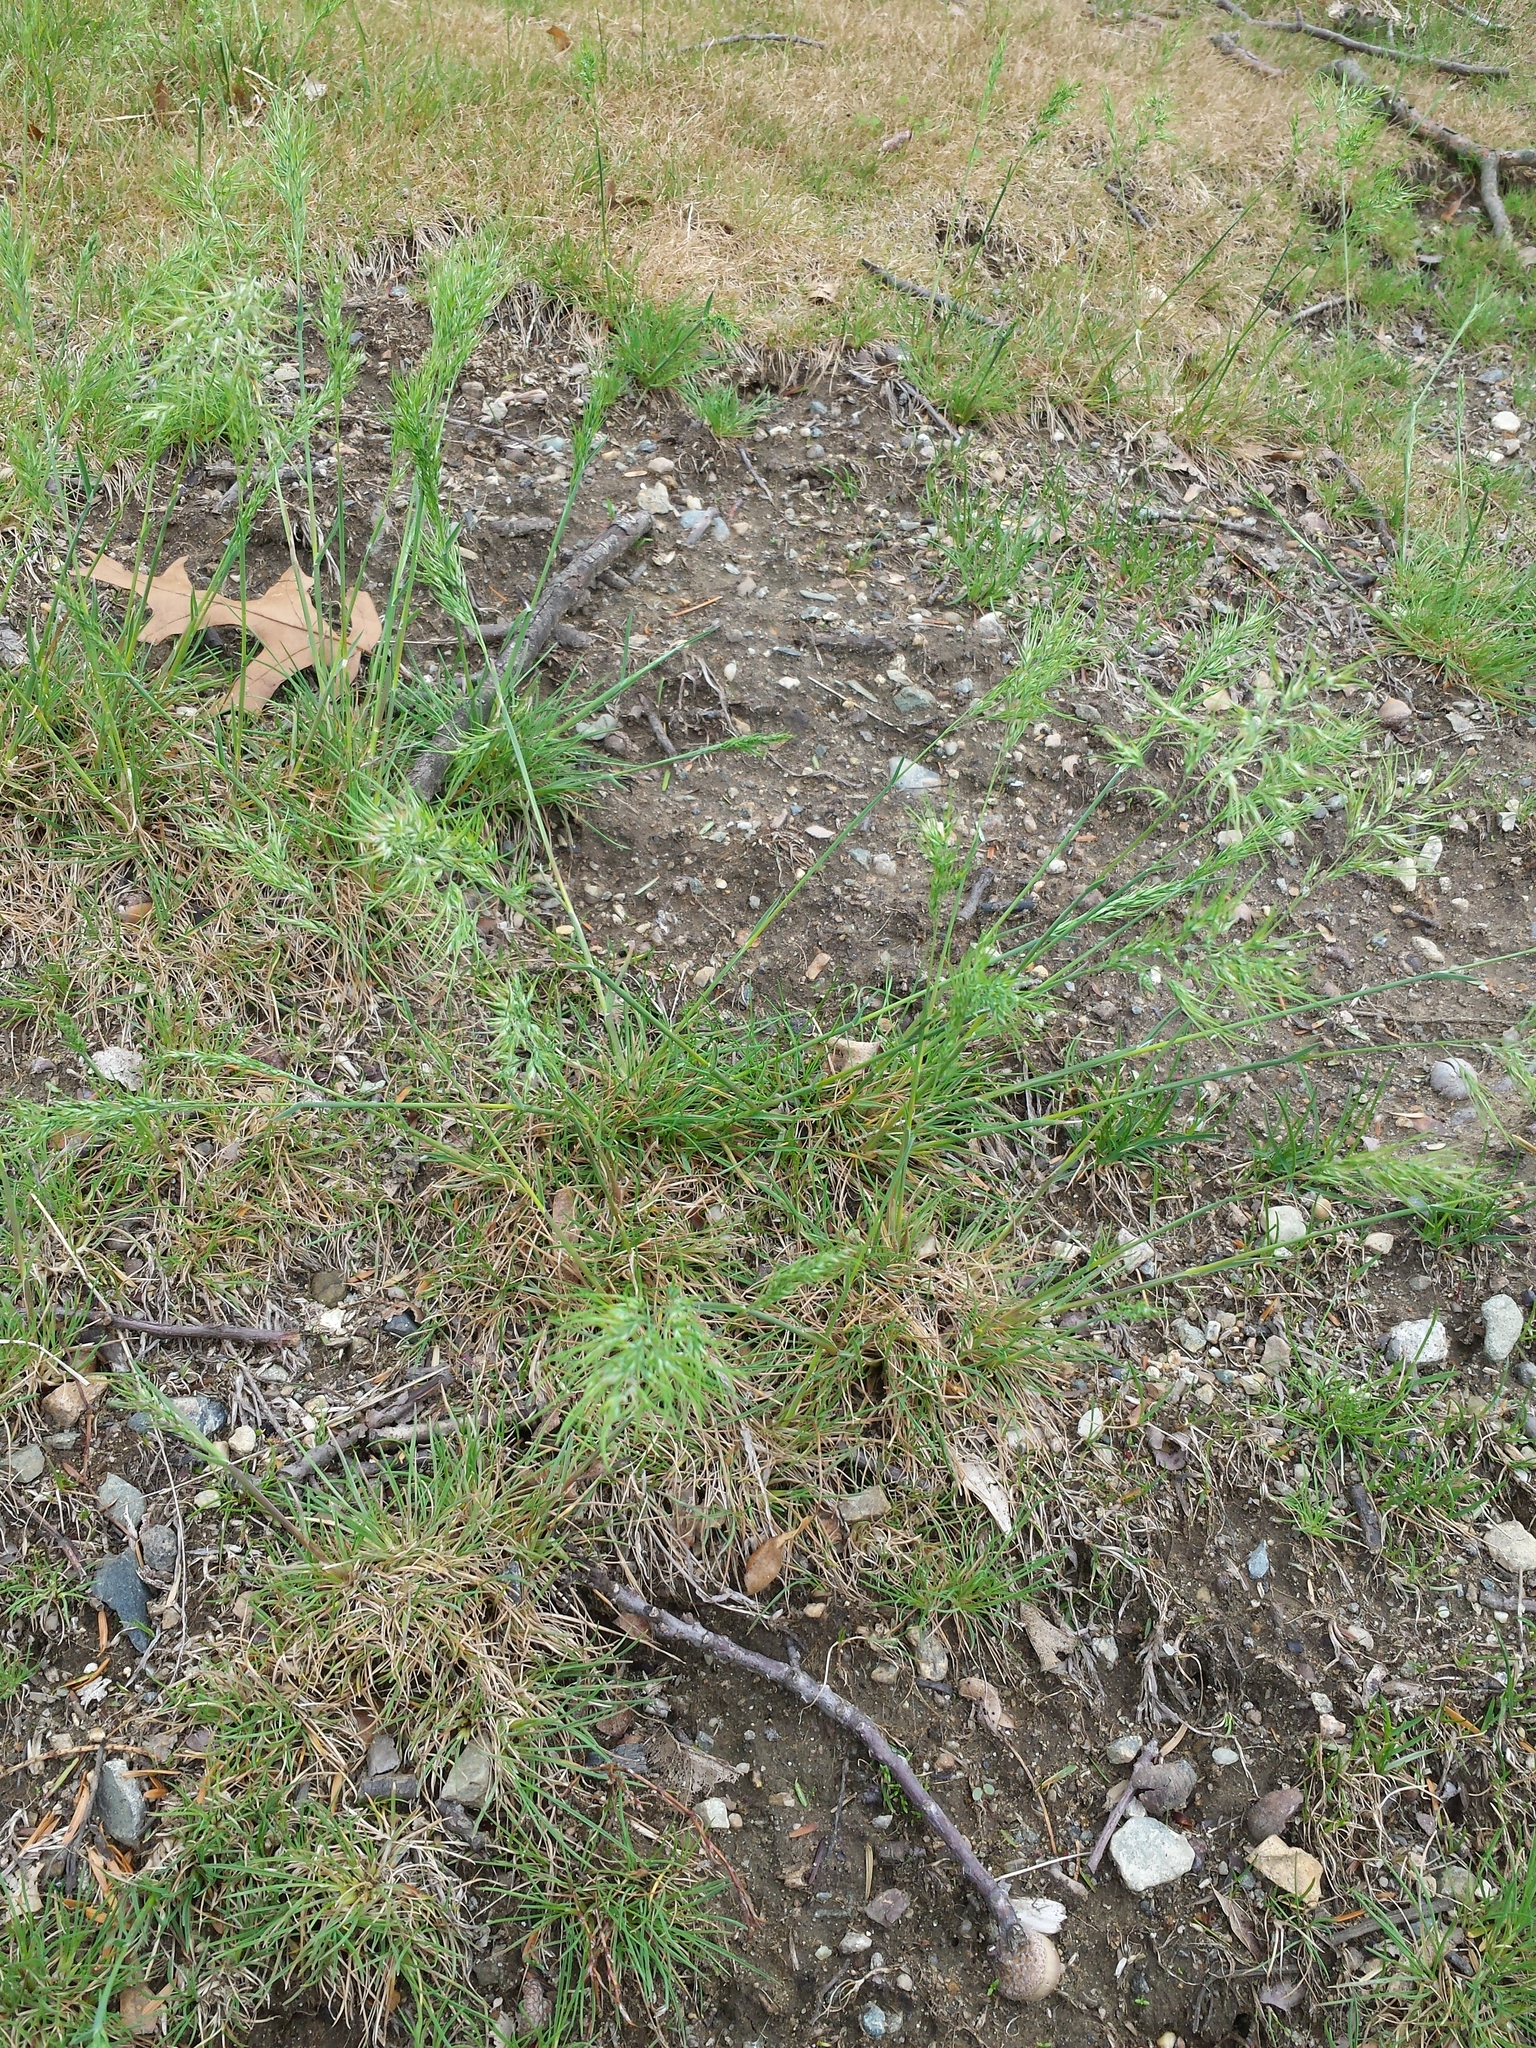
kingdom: Plantae
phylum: Tracheophyta
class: Liliopsida
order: Poales
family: Poaceae
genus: Poa
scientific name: Poa bulbosa
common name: Bulbous bluegrass
